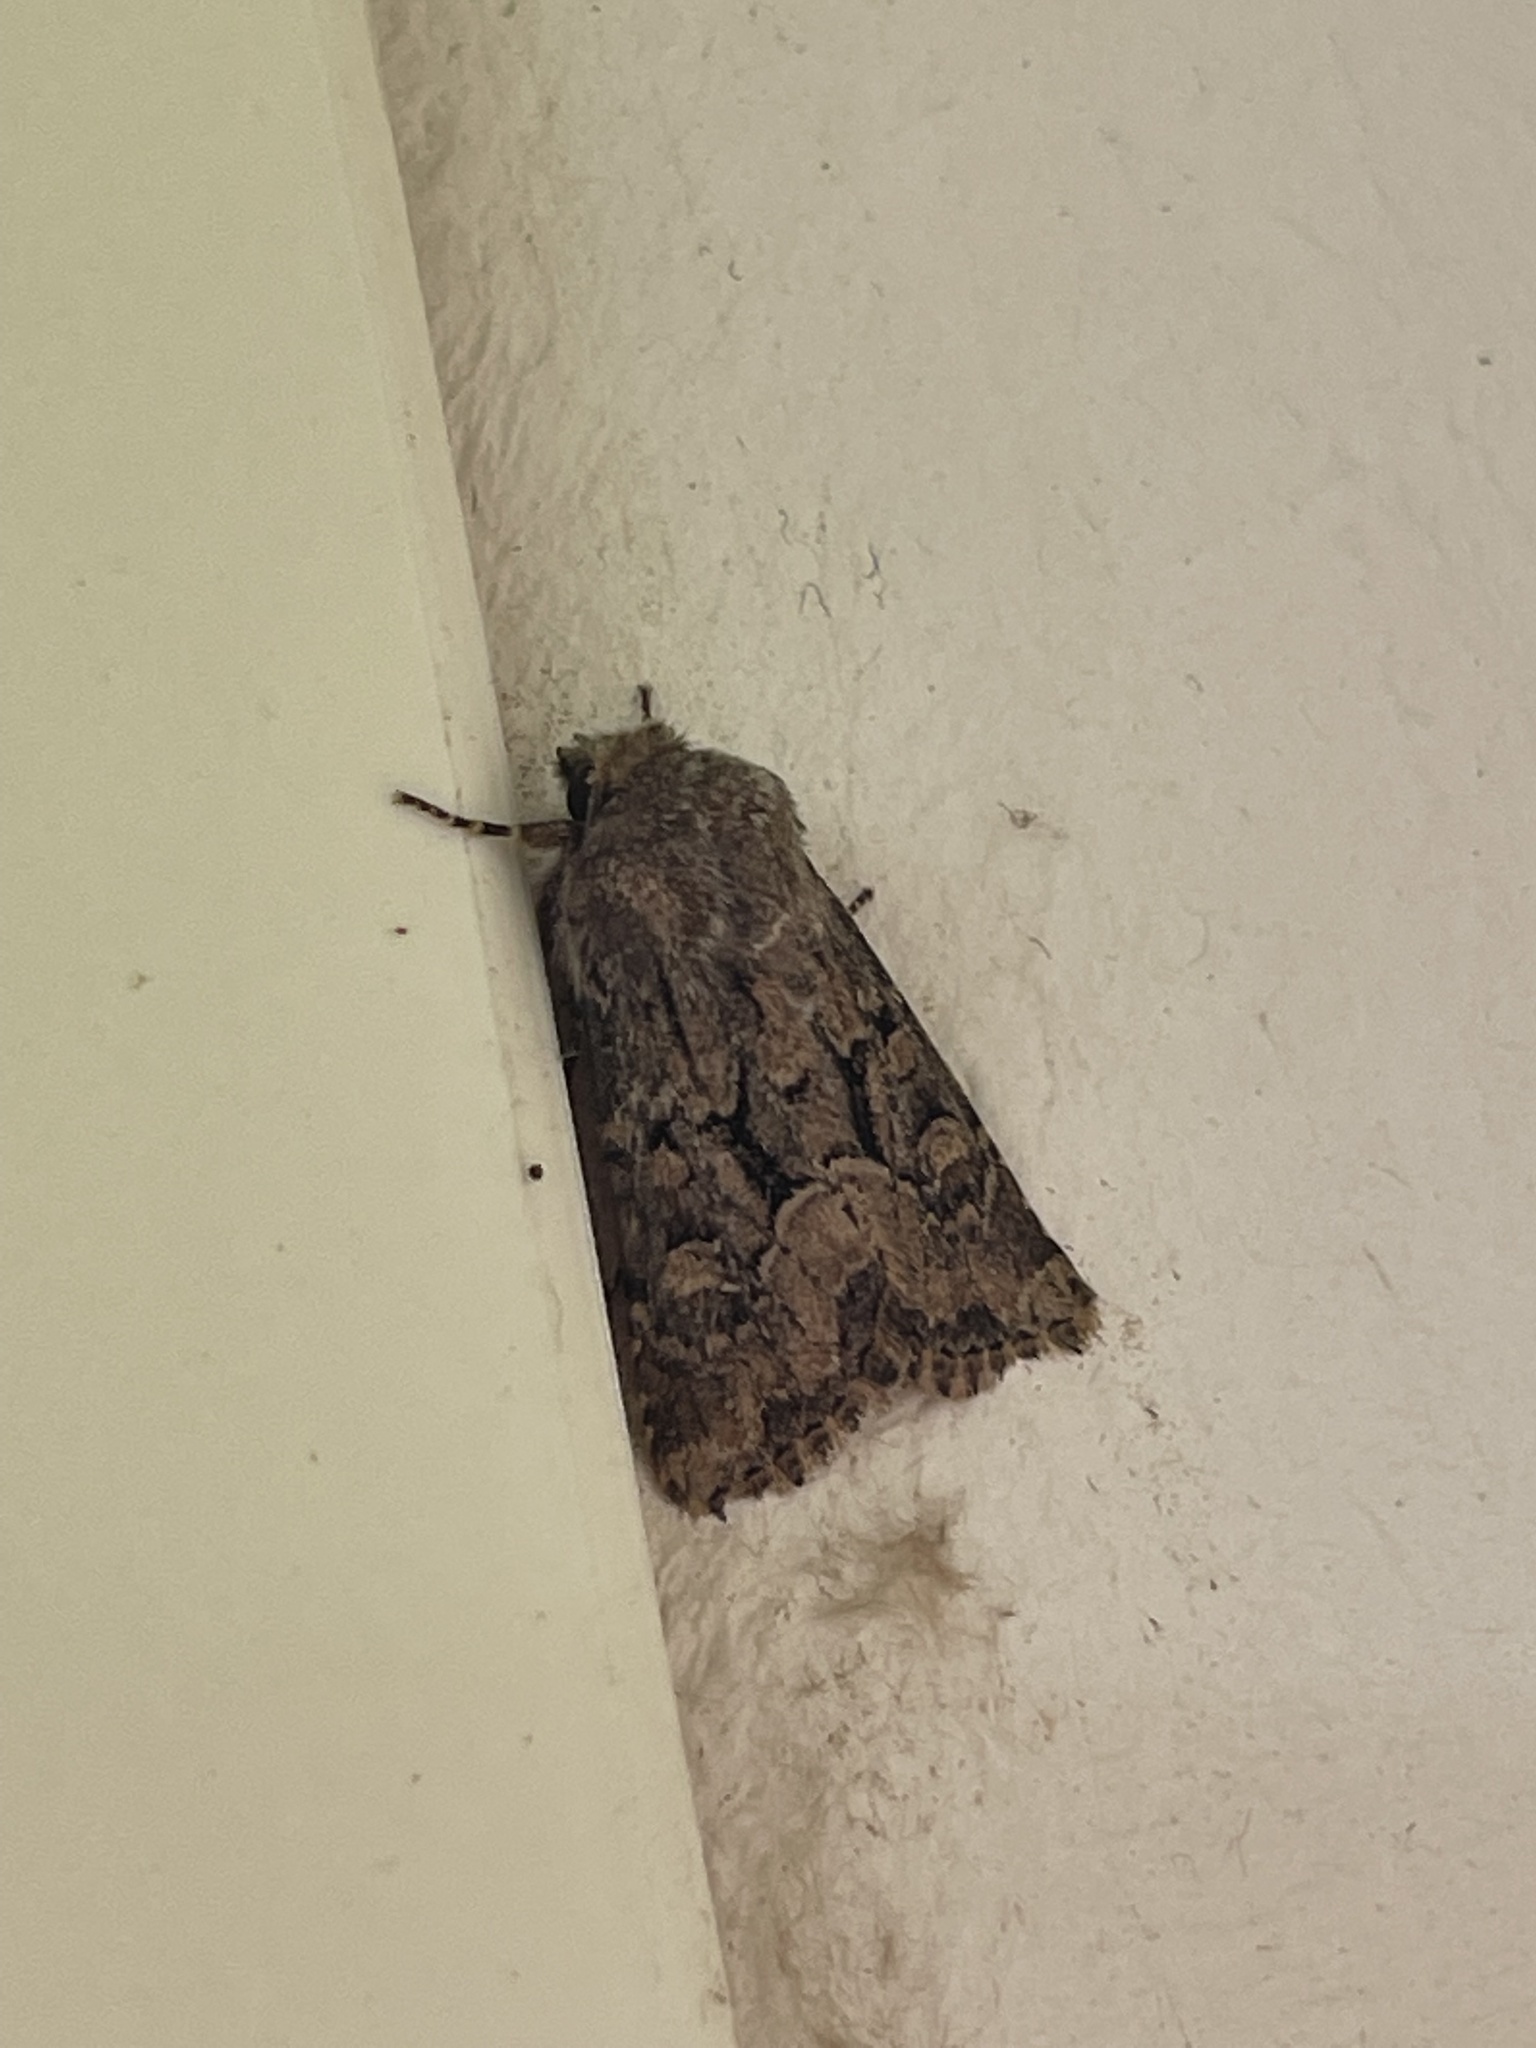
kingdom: Animalia
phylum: Arthropoda
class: Insecta
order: Lepidoptera
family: Noctuidae
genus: Luperina
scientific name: Luperina testacea
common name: Flounced rustic
